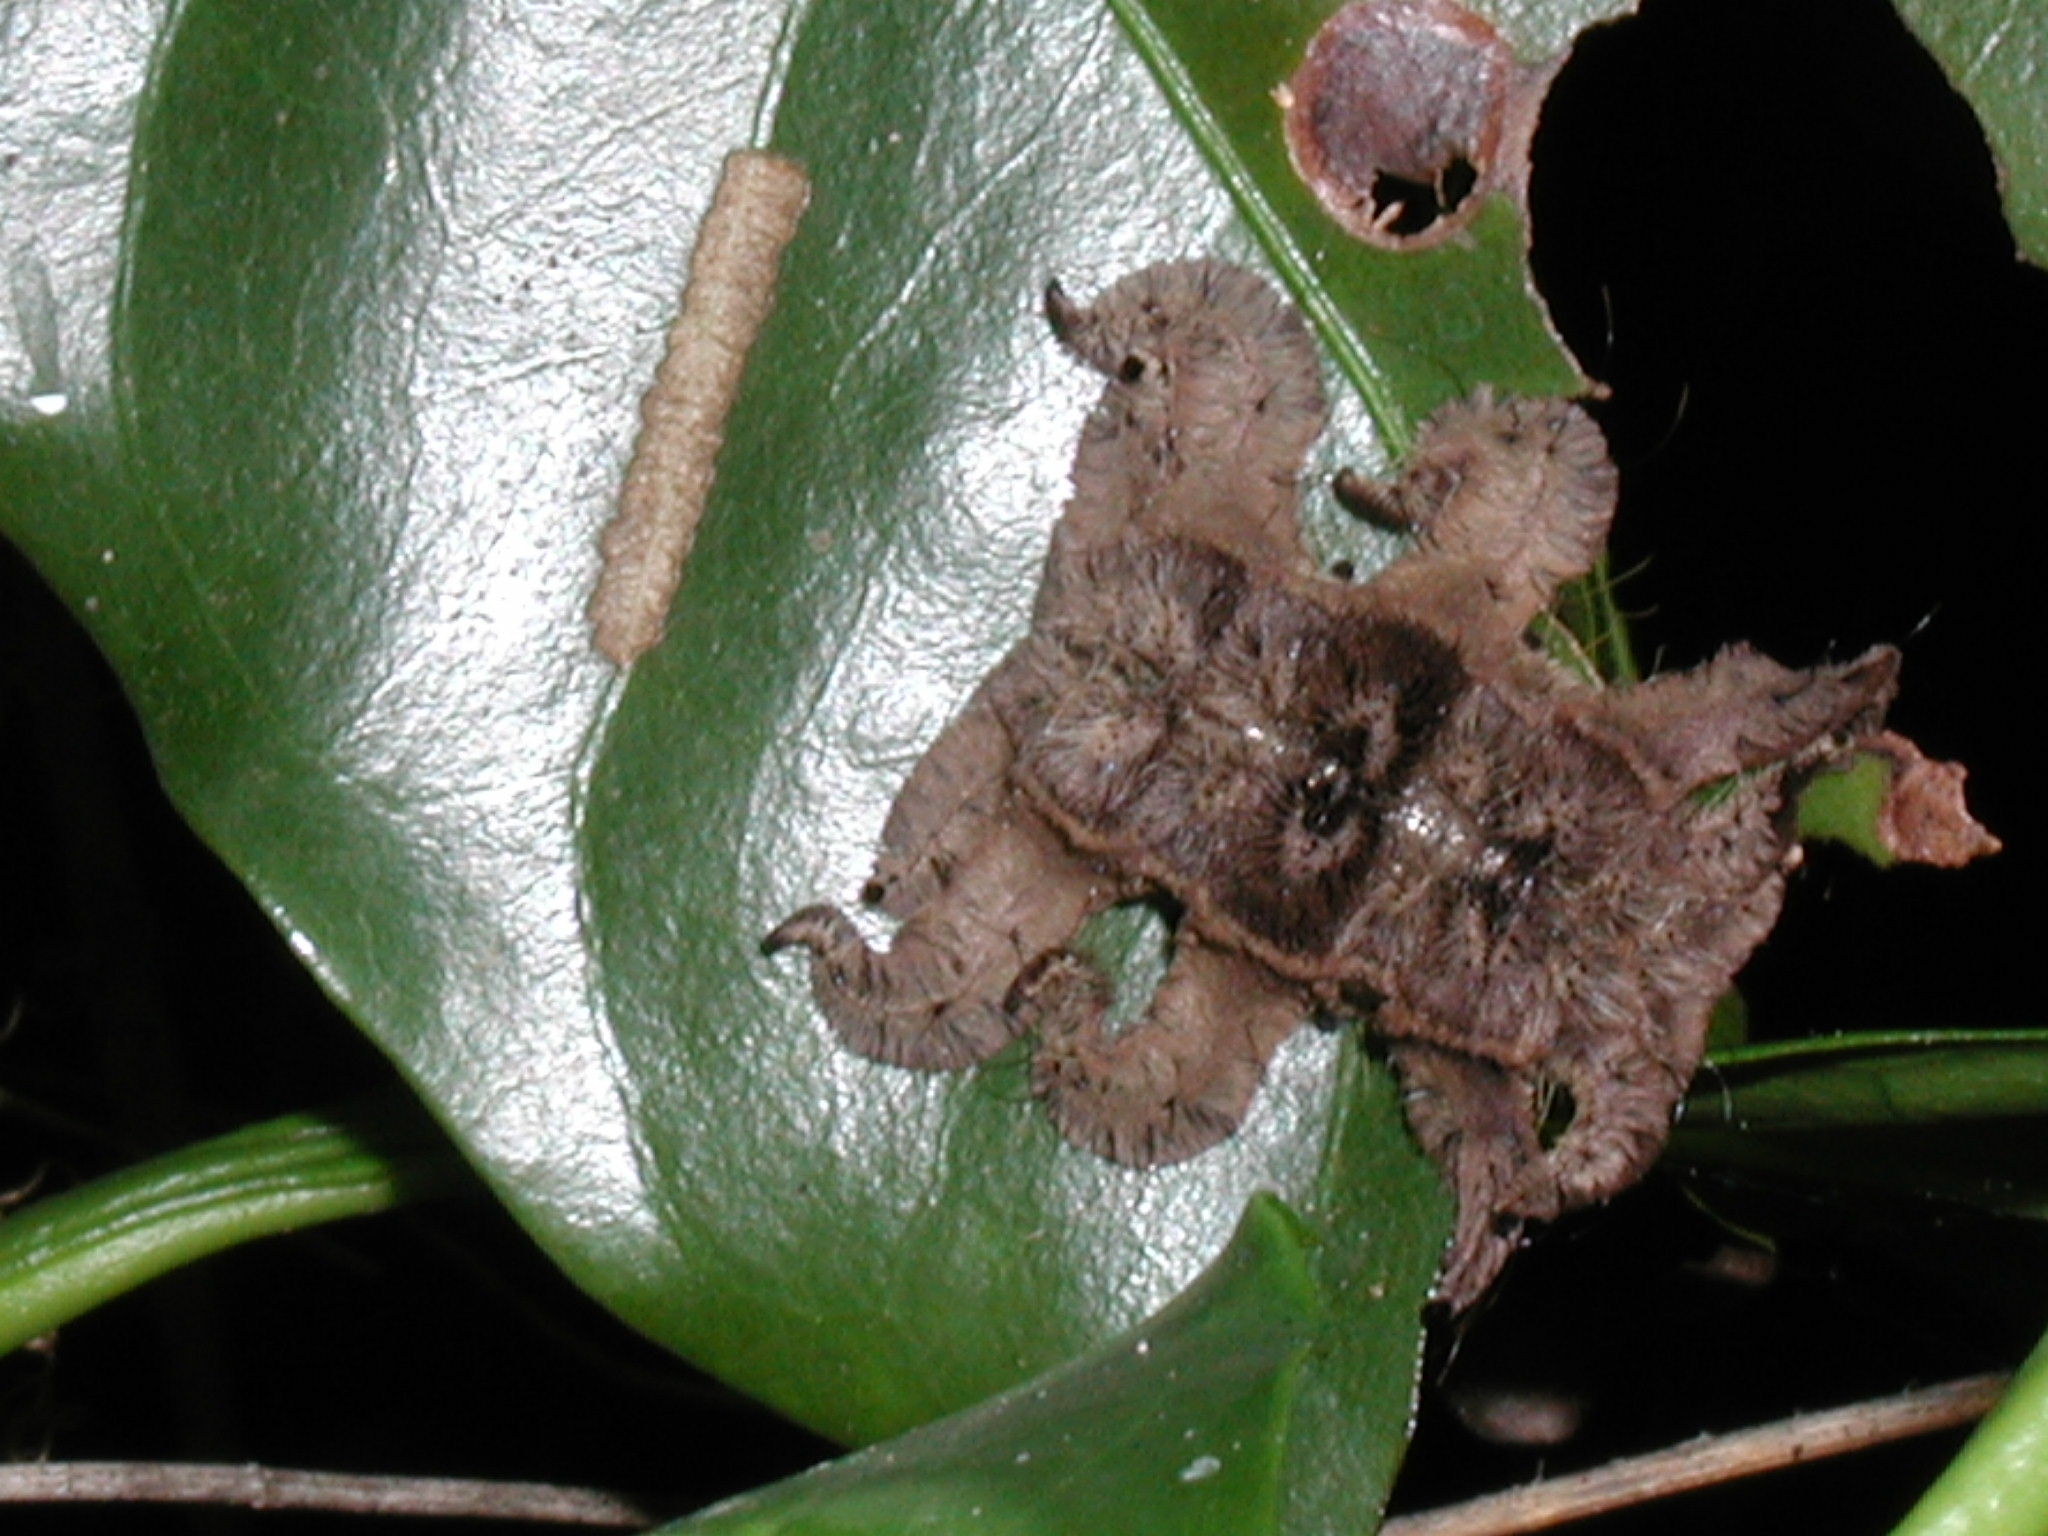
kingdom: Animalia
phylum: Arthropoda
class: Insecta
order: Lepidoptera
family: Limacodidae
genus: Phobetron
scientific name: Phobetron hipparchia
